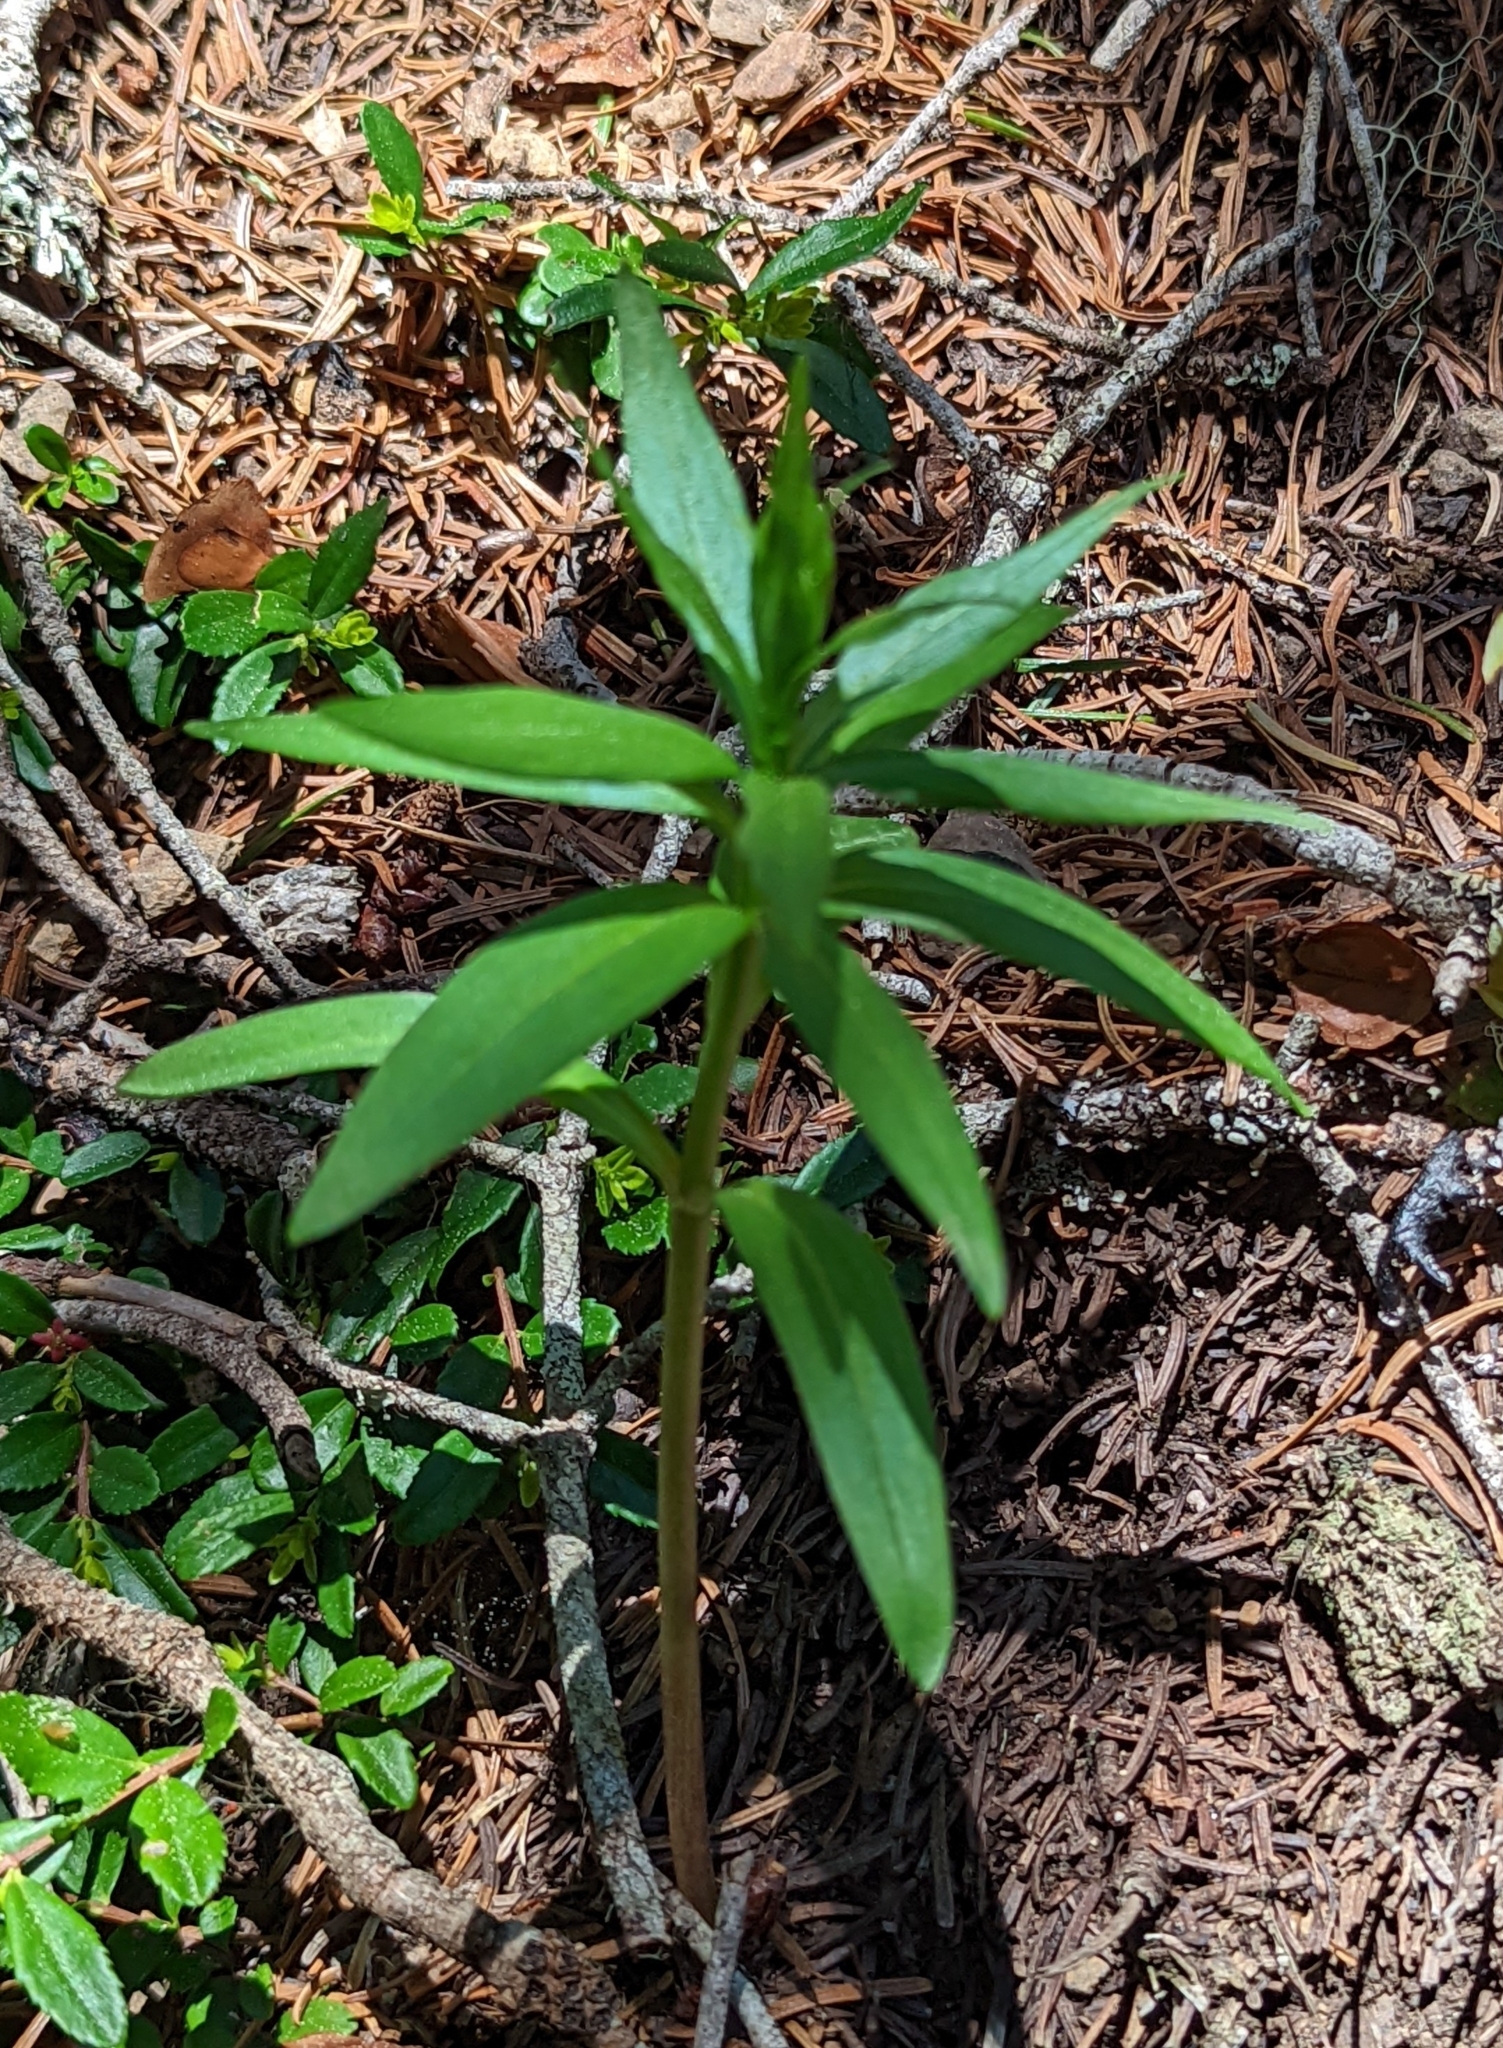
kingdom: Plantae
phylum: Tracheophyta
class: Liliopsida
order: Liliales
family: Liliaceae
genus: Lilium
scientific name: Lilium columbianum
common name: Columbia lily
